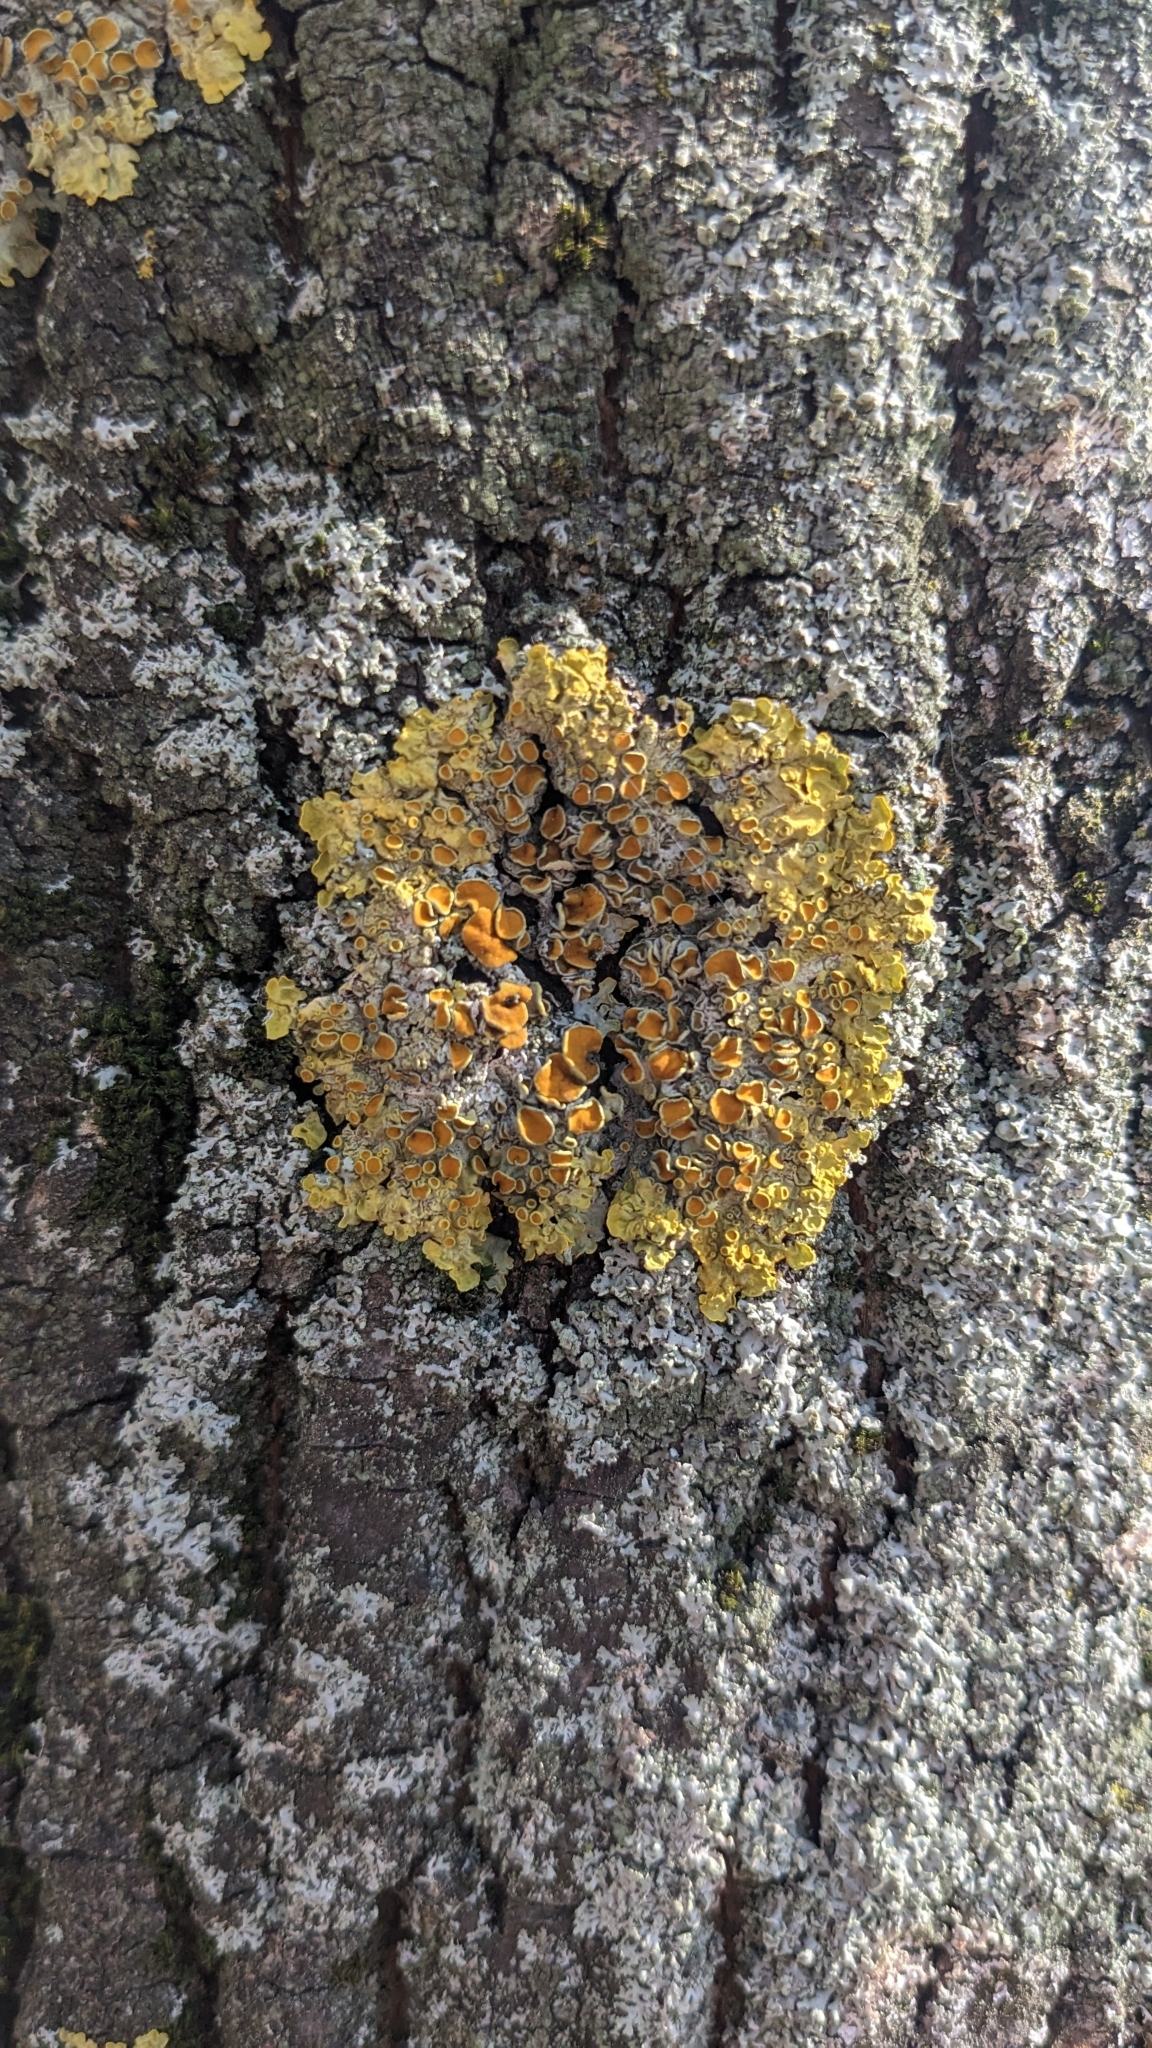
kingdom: Fungi
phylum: Ascomycota
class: Lecanoromycetes
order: Teloschistales
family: Teloschistaceae
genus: Xanthoria
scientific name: Xanthoria parietina
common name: Common orange lichen
